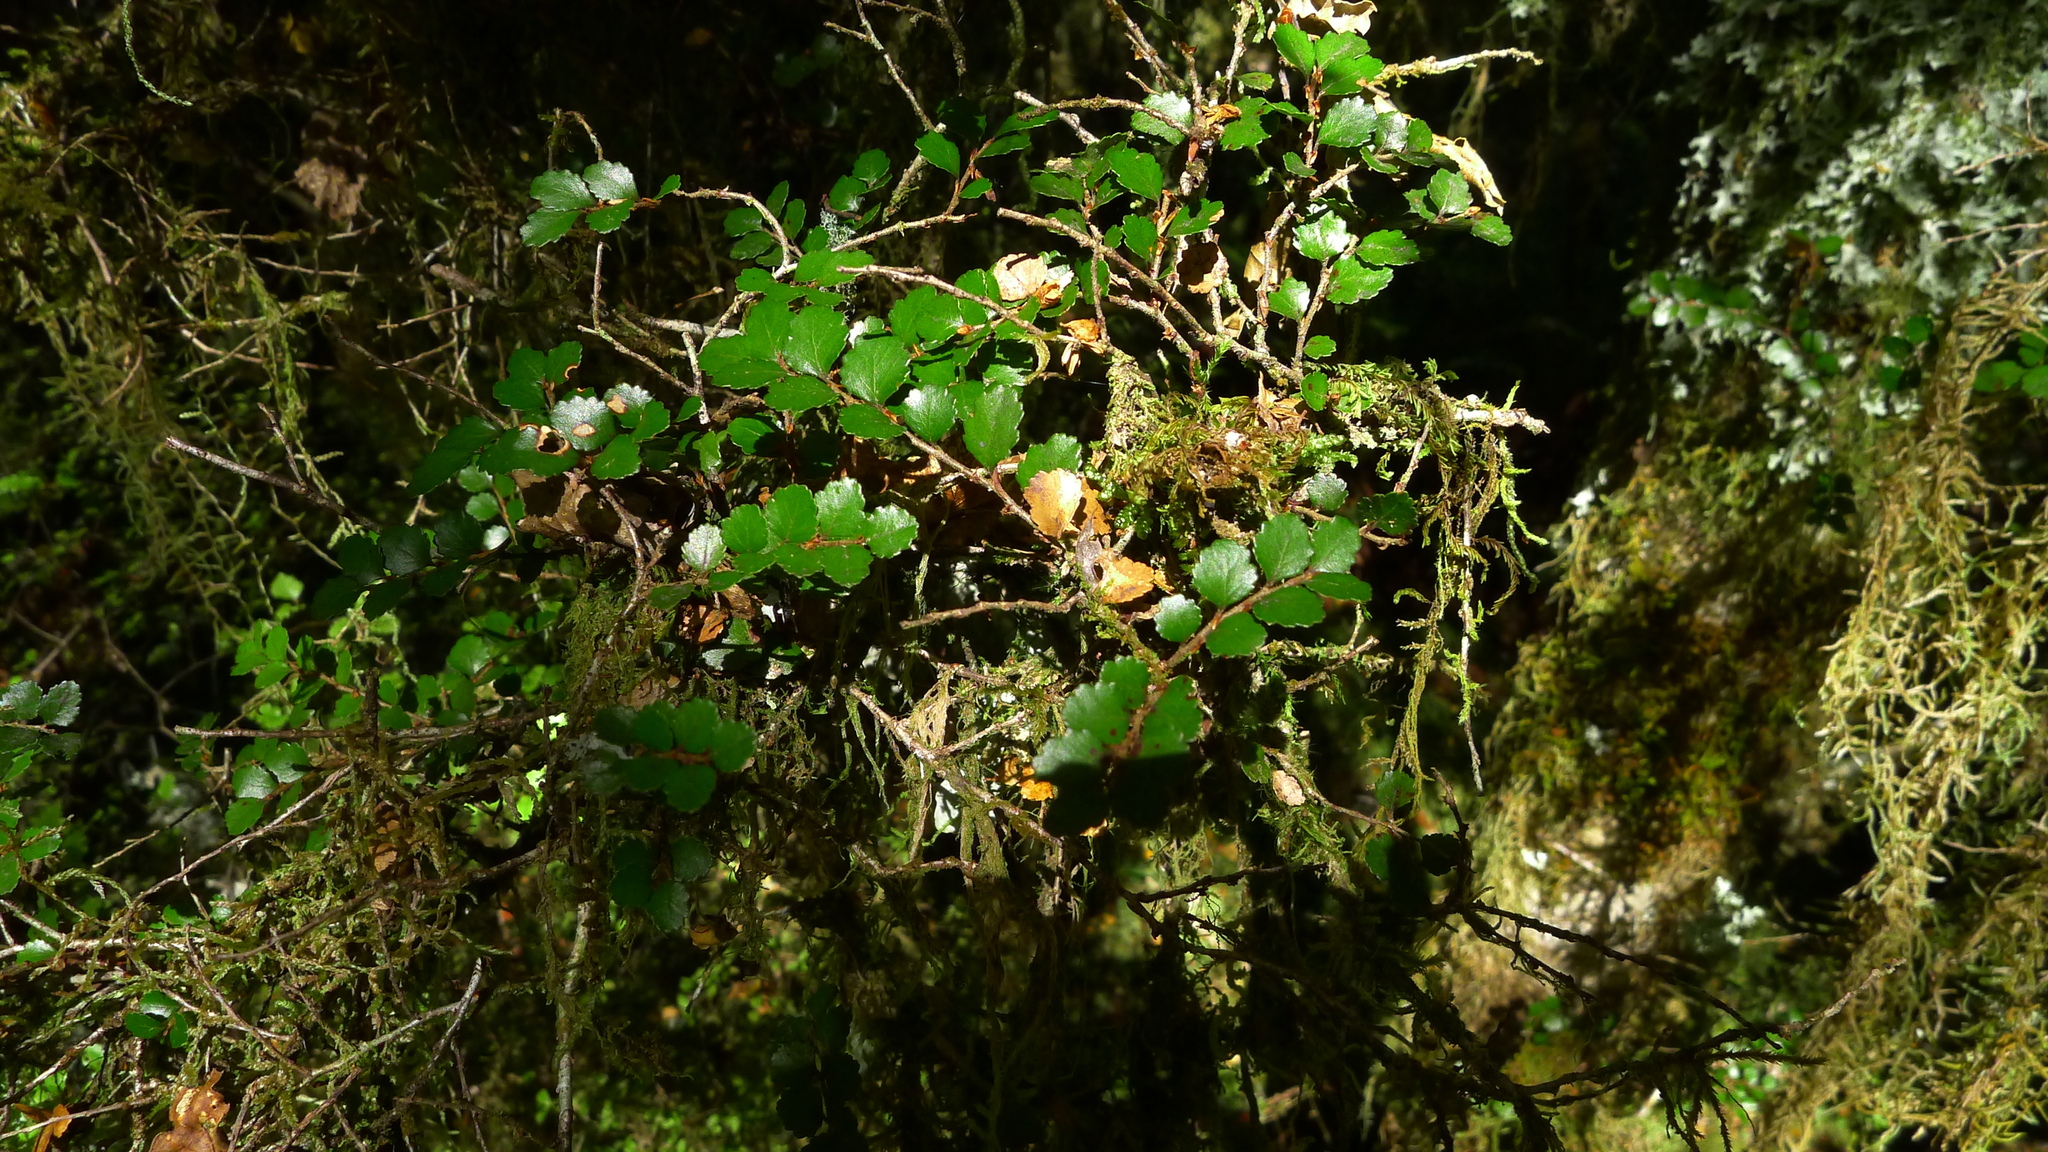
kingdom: Plantae
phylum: Tracheophyta
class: Magnoliopsida
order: Fagales
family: Nothofagaceae
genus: Nothofagus
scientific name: Nothofagus menziesii
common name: Silver beech
